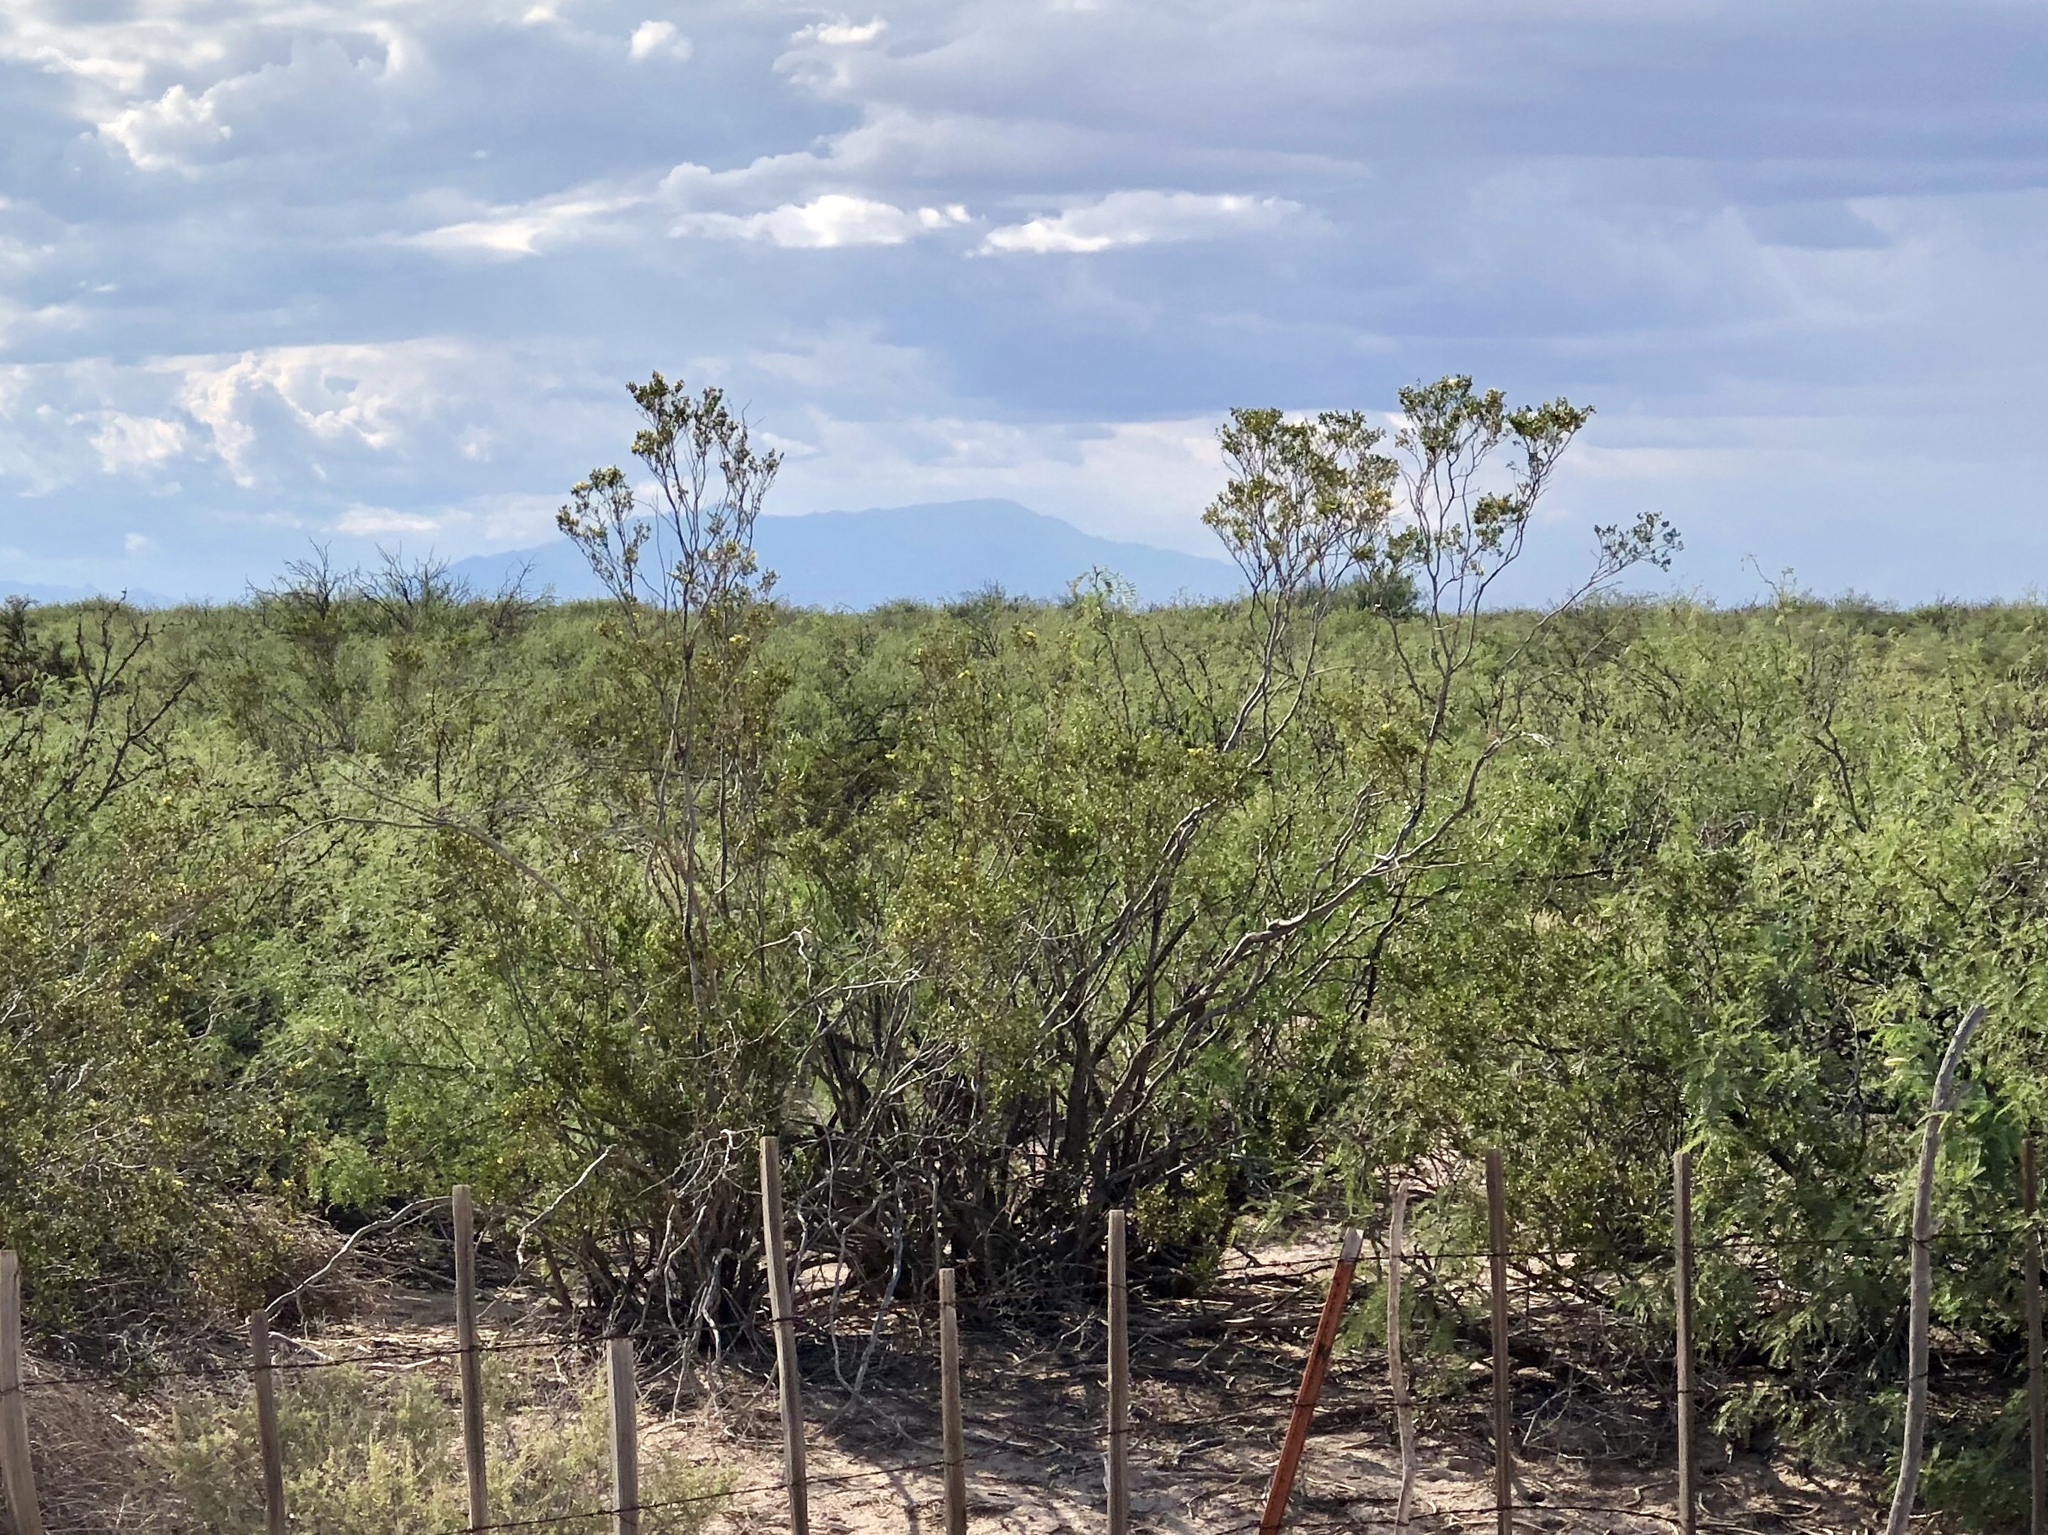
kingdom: Plantae
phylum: Tracheophyta
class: Magnoliopsida
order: Zygophyllales
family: Zygophyllaceae
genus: Larrea
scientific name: Larrea tridentata
